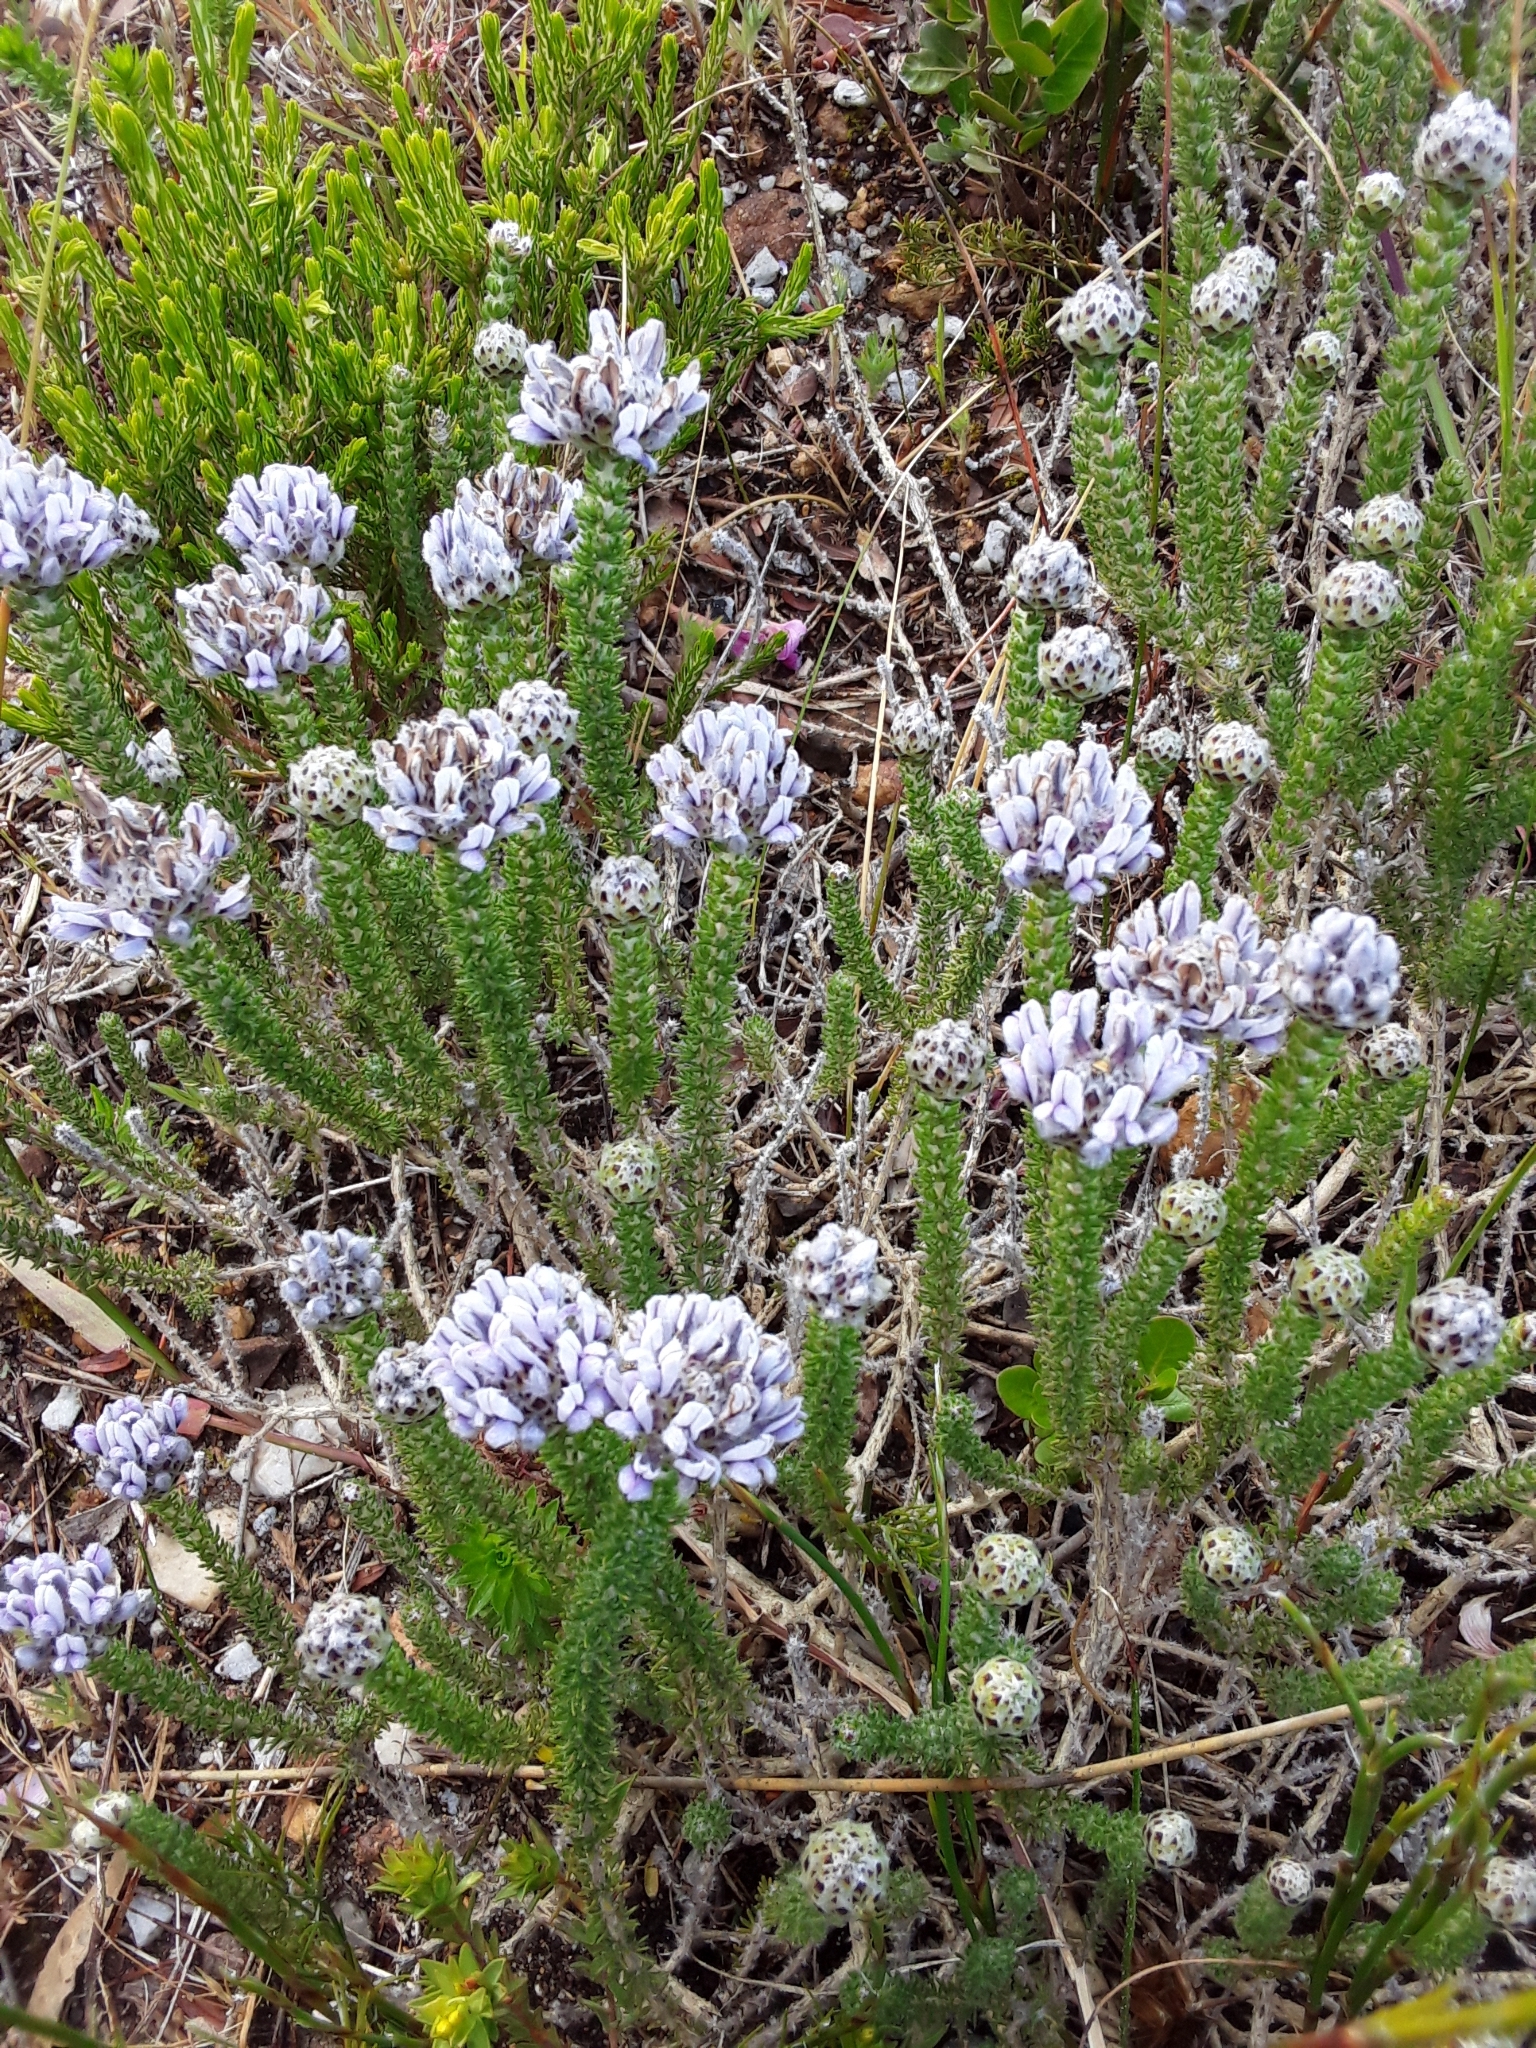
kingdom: Plantae
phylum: Tracheophyta
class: Magnoliopsida
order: Fabales
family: Fabaceae
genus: Aspalathus
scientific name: Aspalathus globulosa
